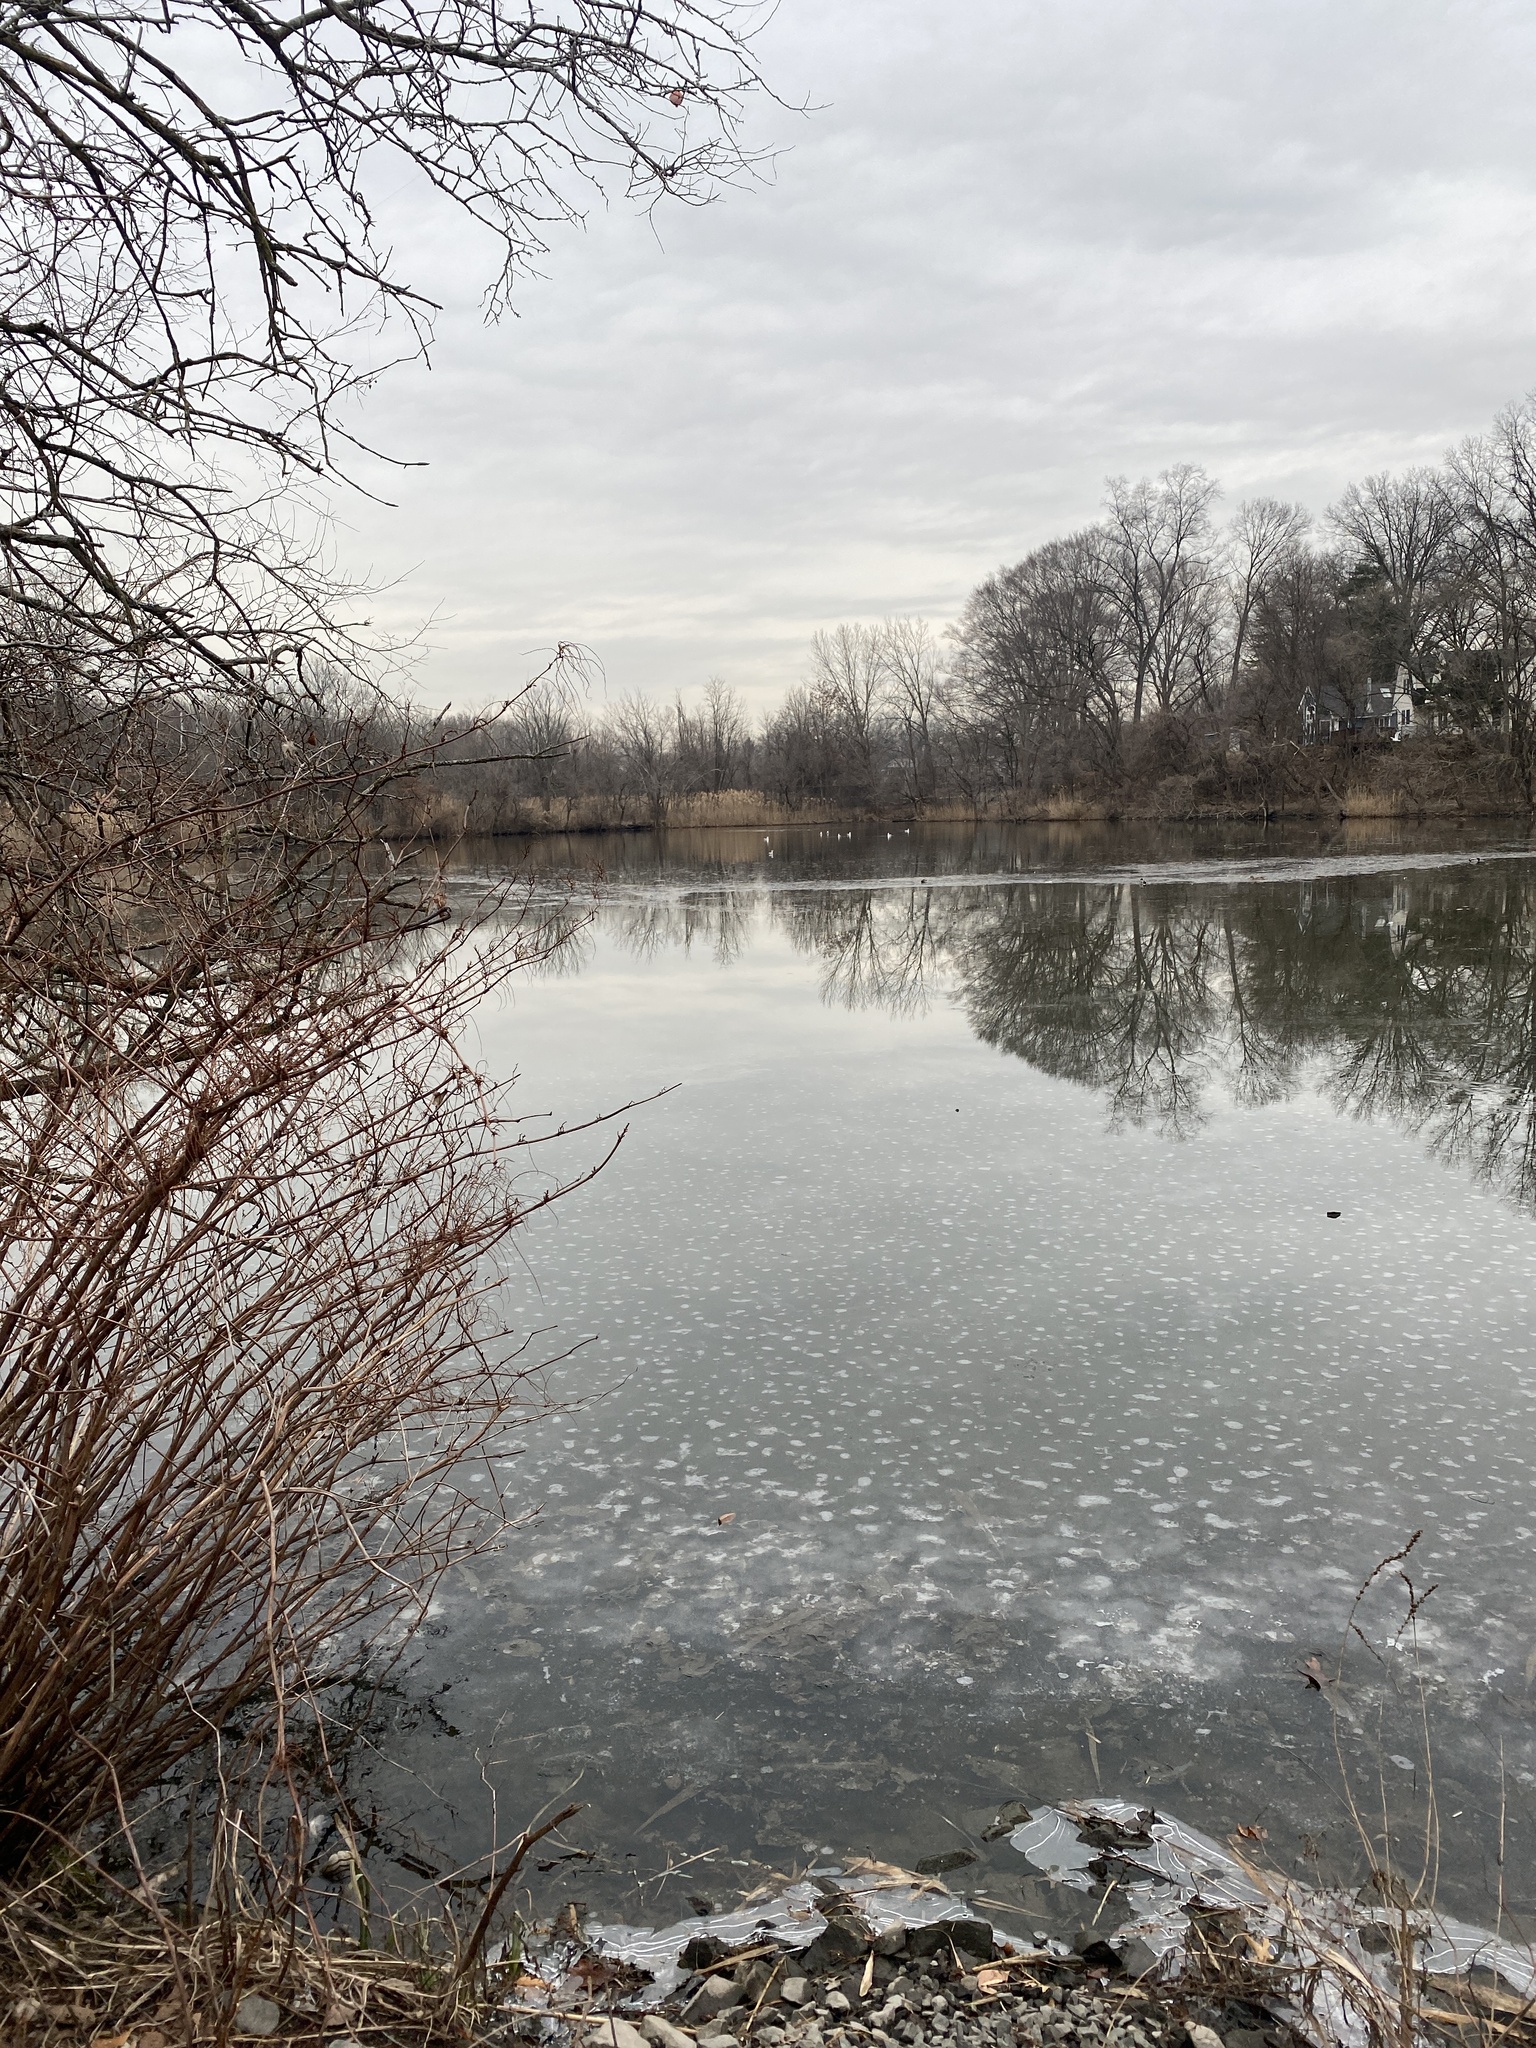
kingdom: Animalia
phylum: Chordata
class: Aves
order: Anseriformes
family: Anatidae
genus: Anas
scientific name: Anas platyrhynchos
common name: Mallard
